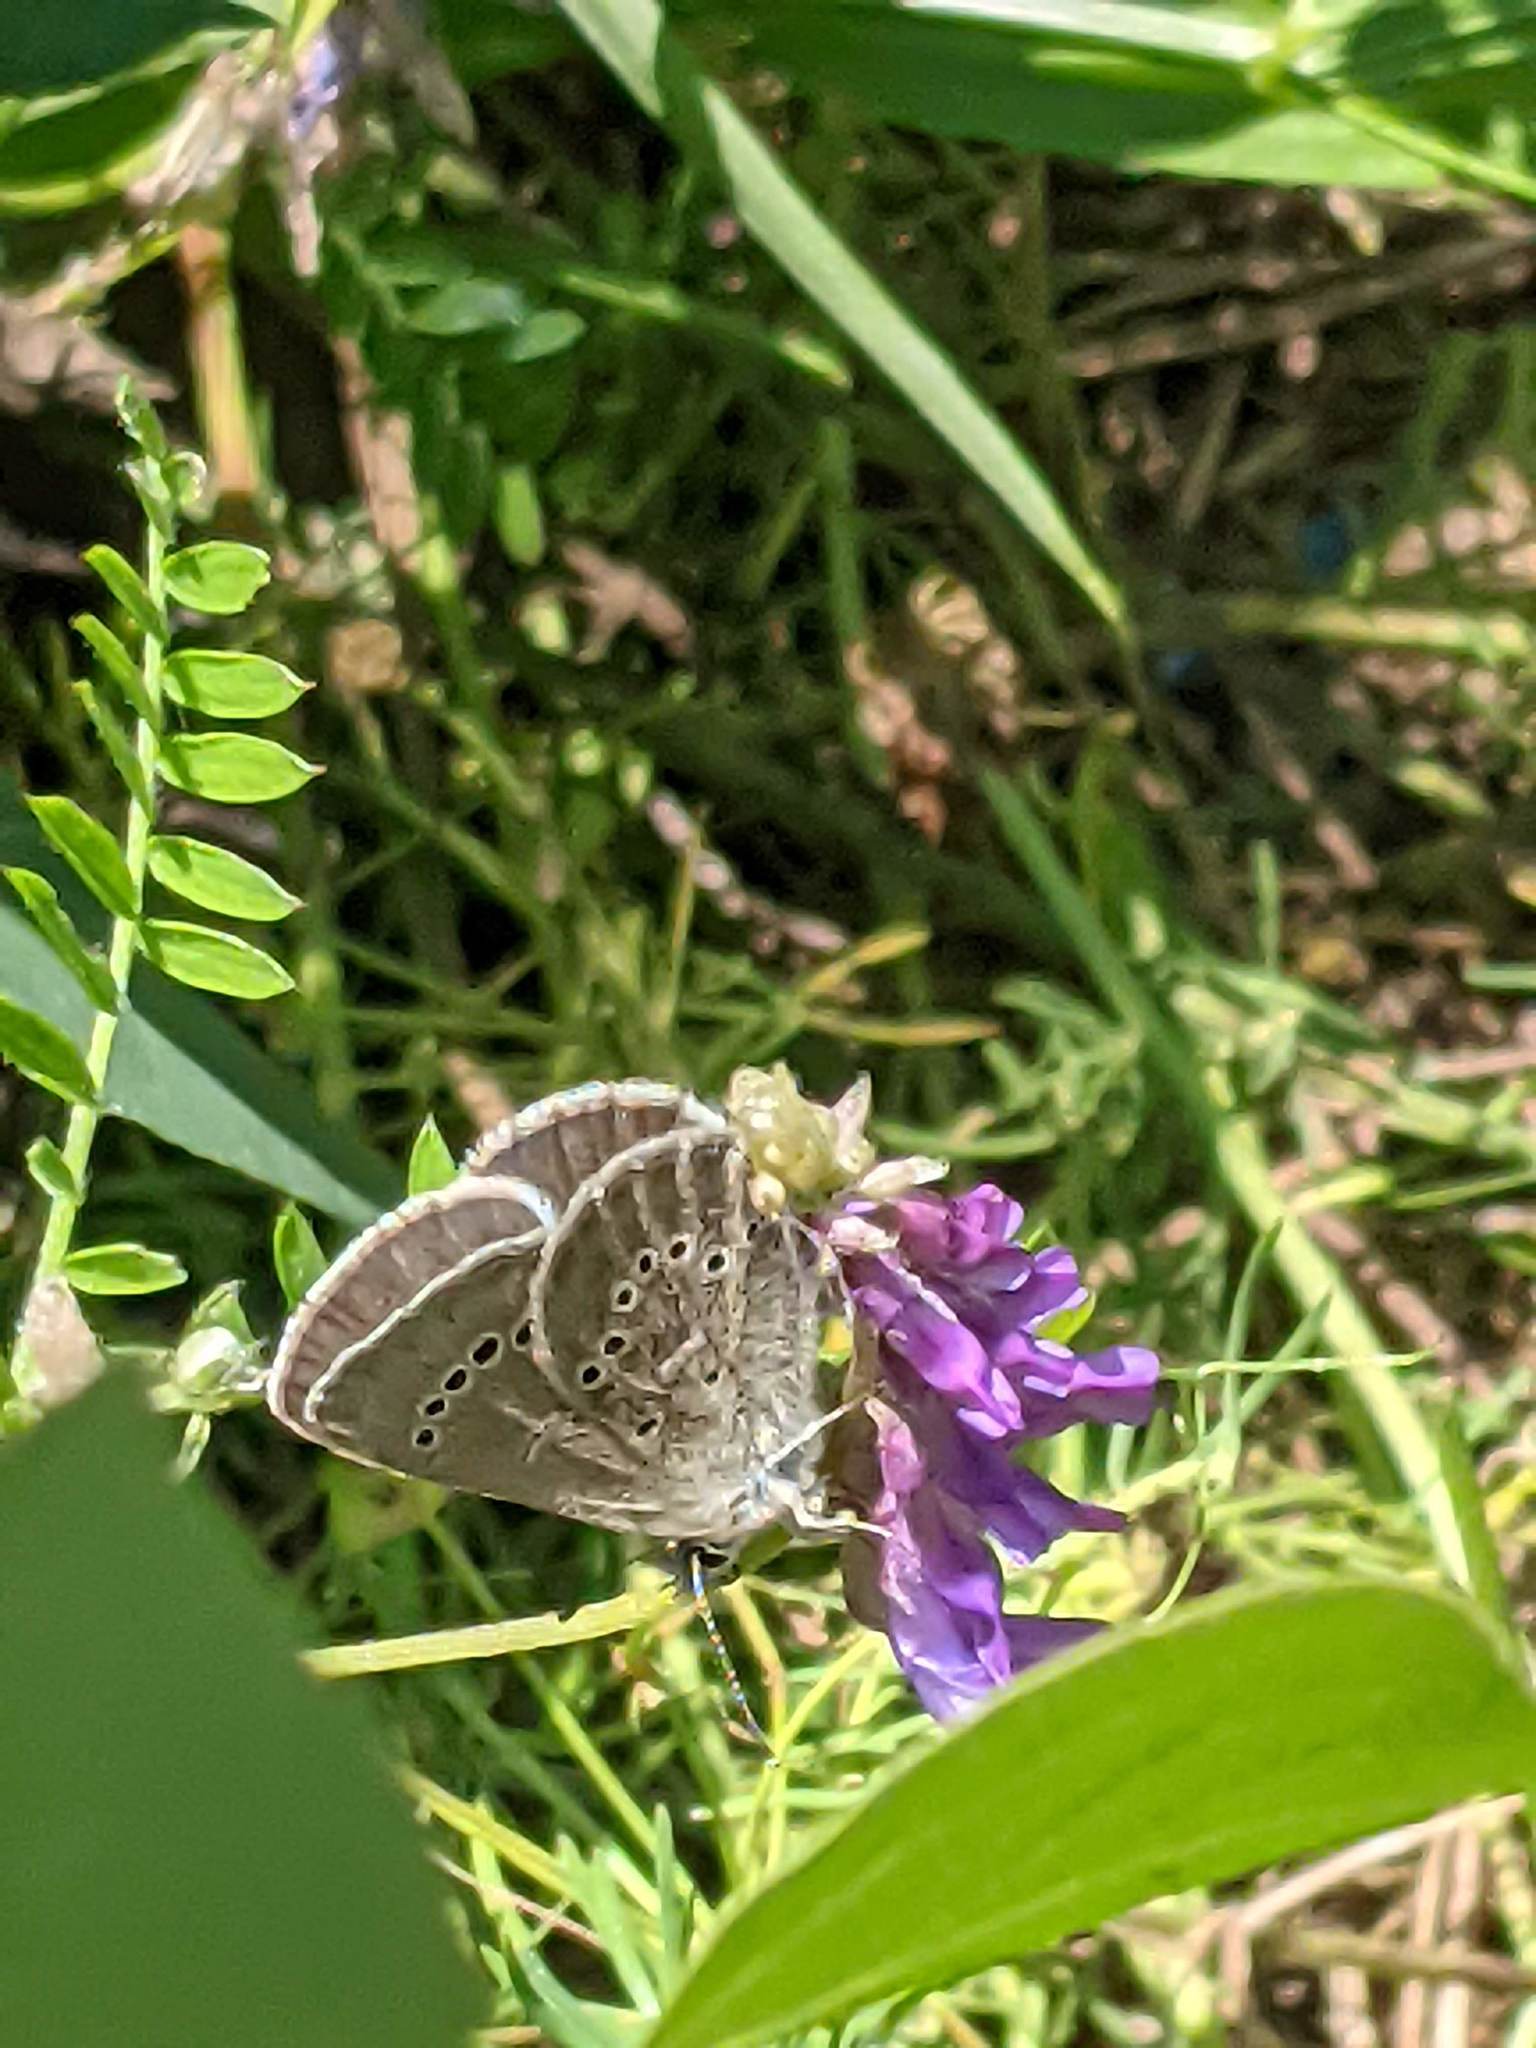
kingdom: Animalia
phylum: Arthropoda
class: Insecta
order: Lepidoptera
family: Lycaenidae
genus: Glaucopsyche
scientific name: Glaucopsyche lygdamus
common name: Silvery blue
